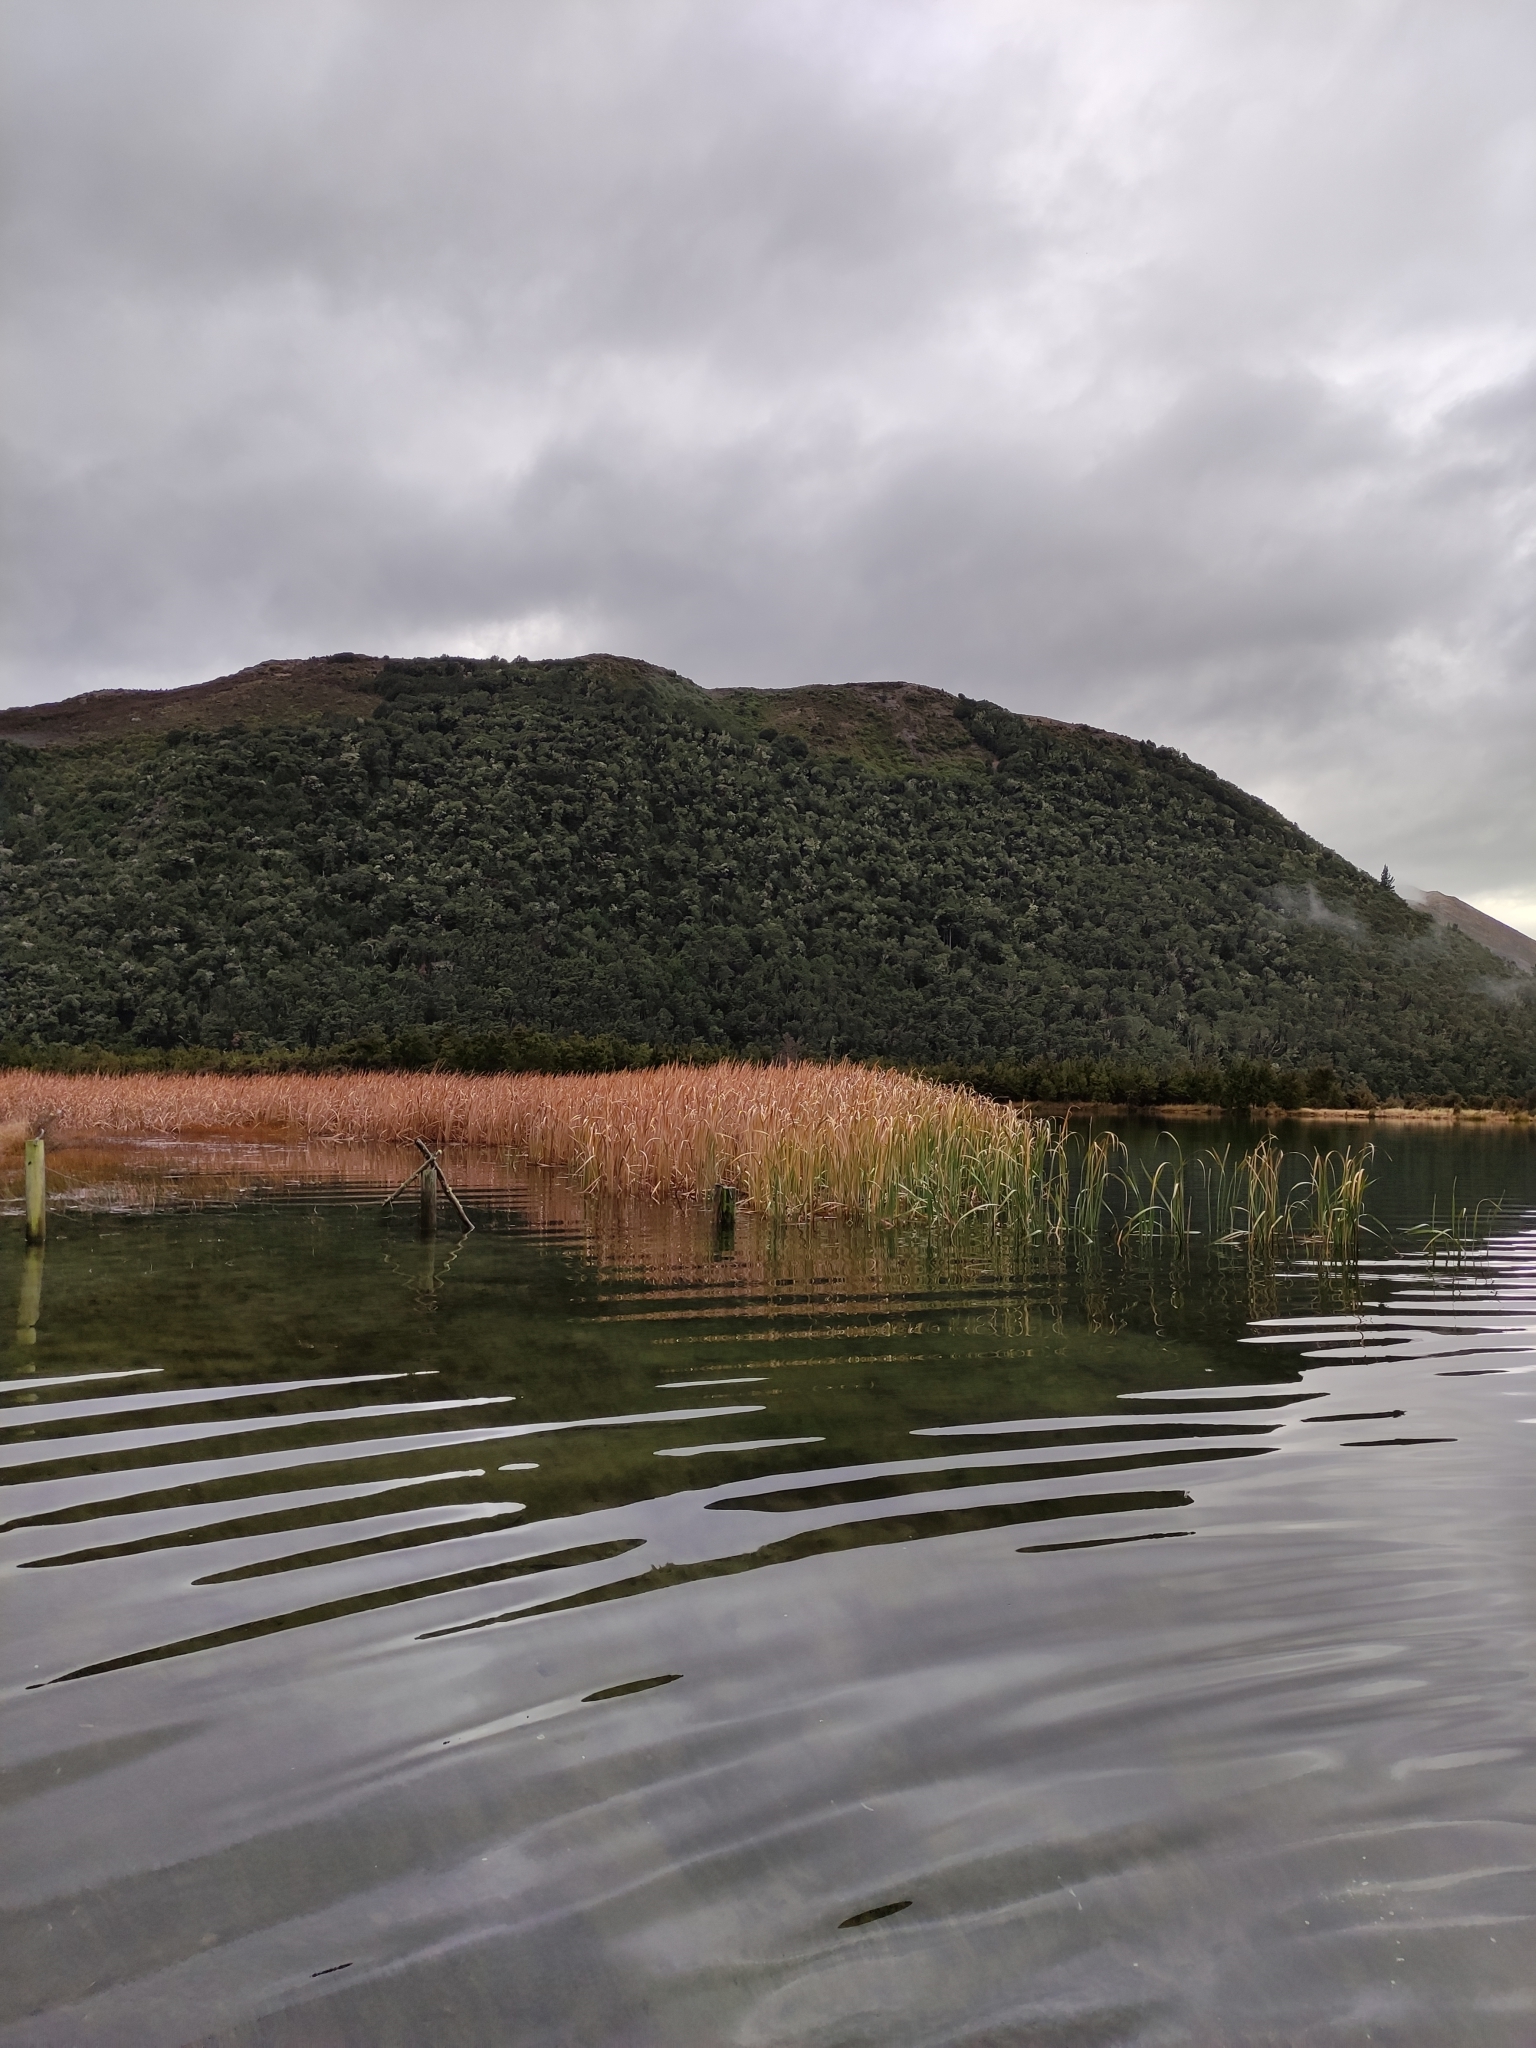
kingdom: Plantae
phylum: Tracheophyta
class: Liliopsida
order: Poales
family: Typhaceae
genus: Typha
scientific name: Typha orientalis
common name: Bullrush
